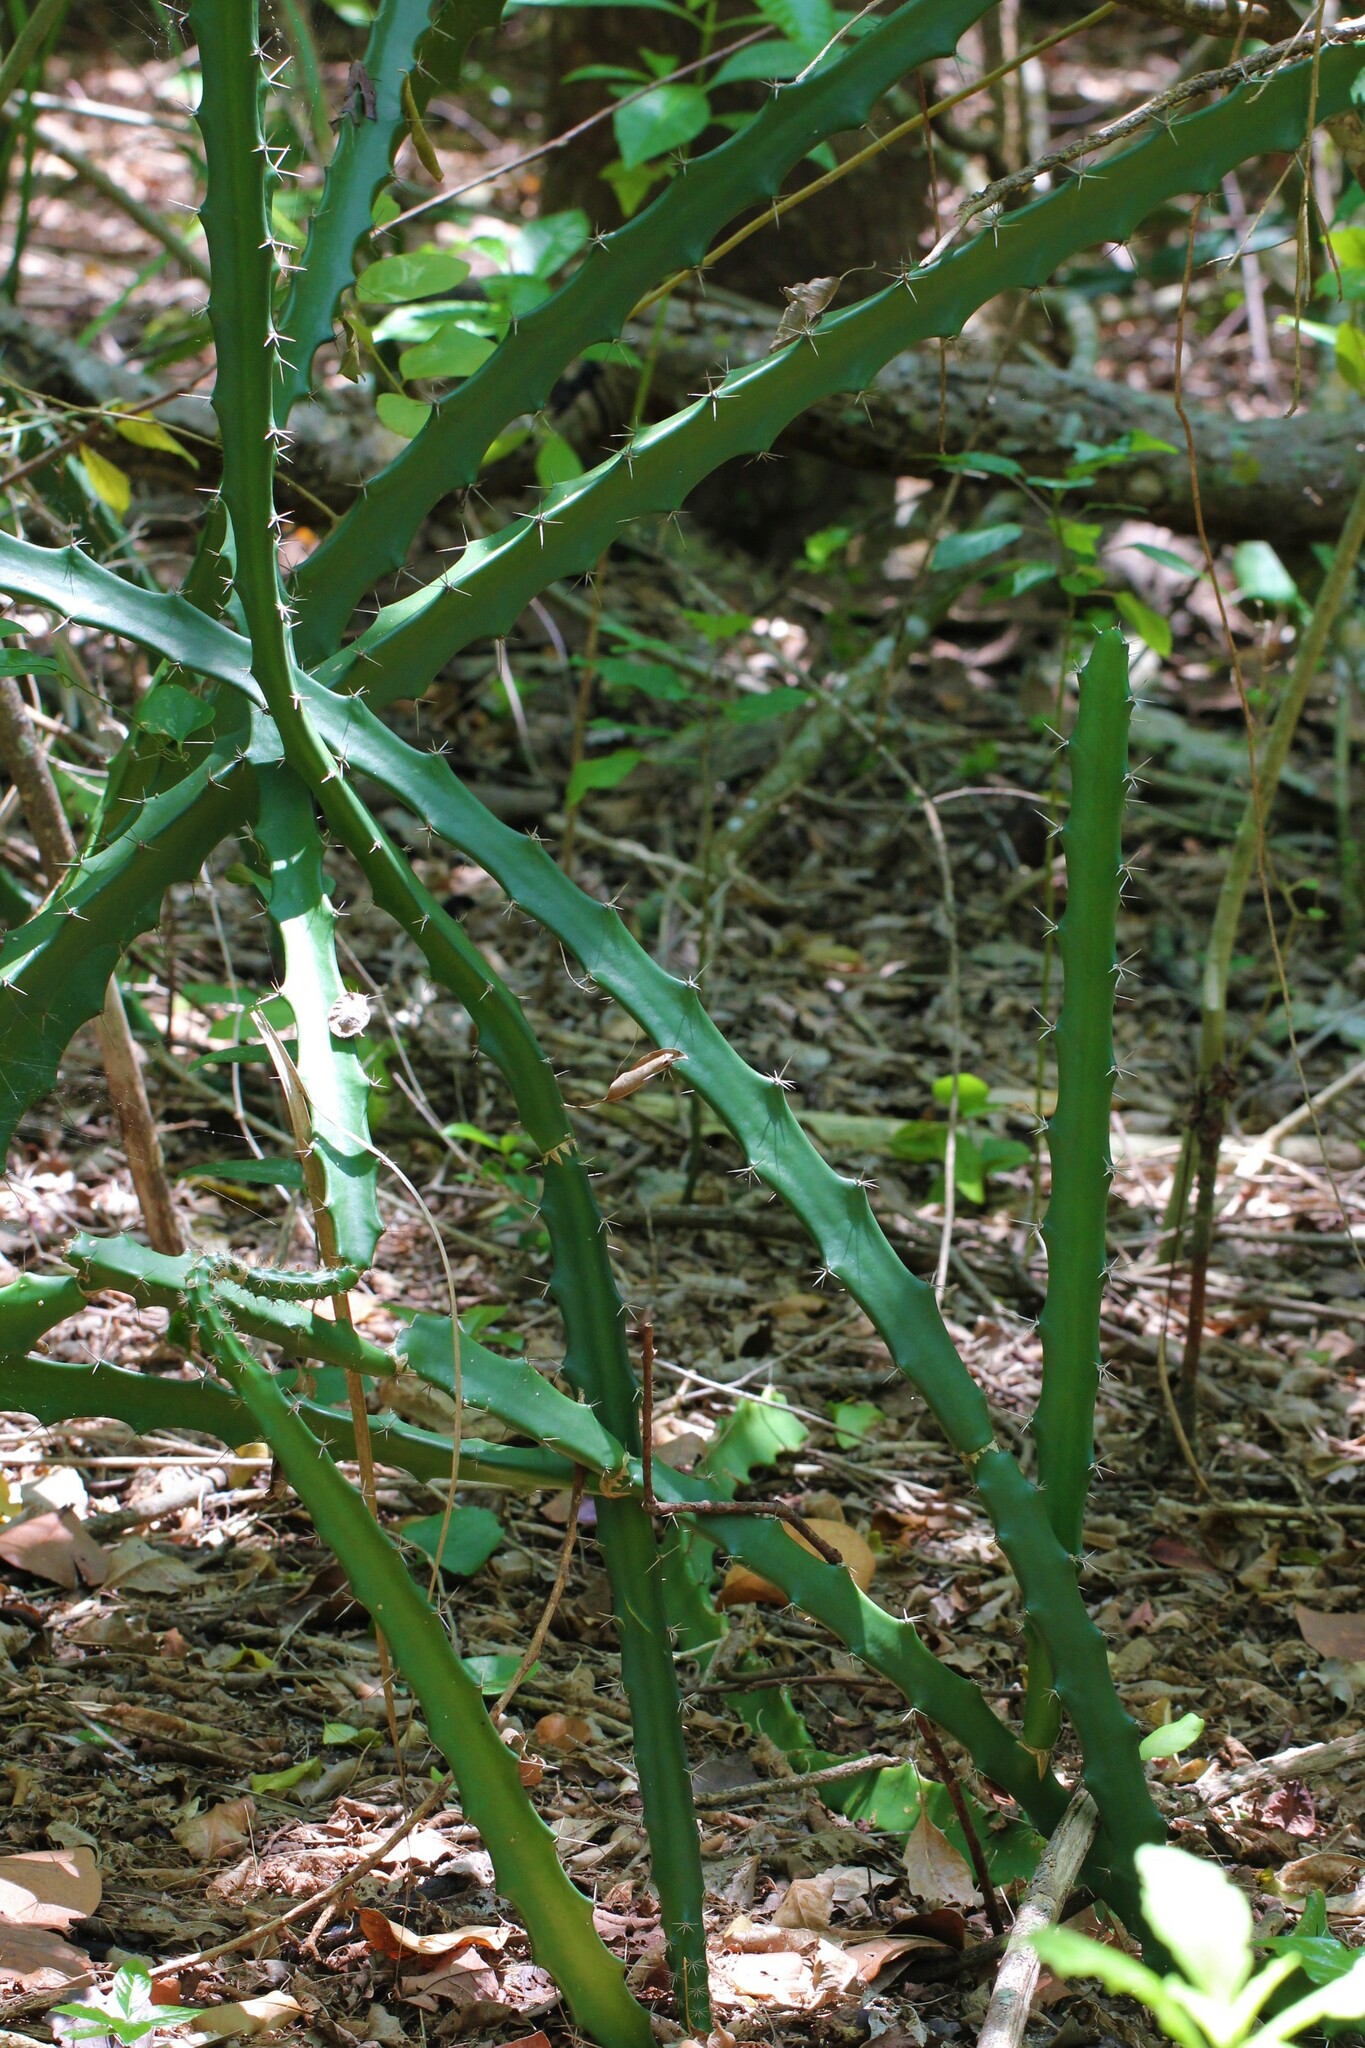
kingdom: Plantae
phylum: Tracheophyta
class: Magnoliopsida
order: Caryophyllales
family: Cactaceae
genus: Acanthocereus
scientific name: Acanthocereus tetragonus
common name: Triangle cactus
